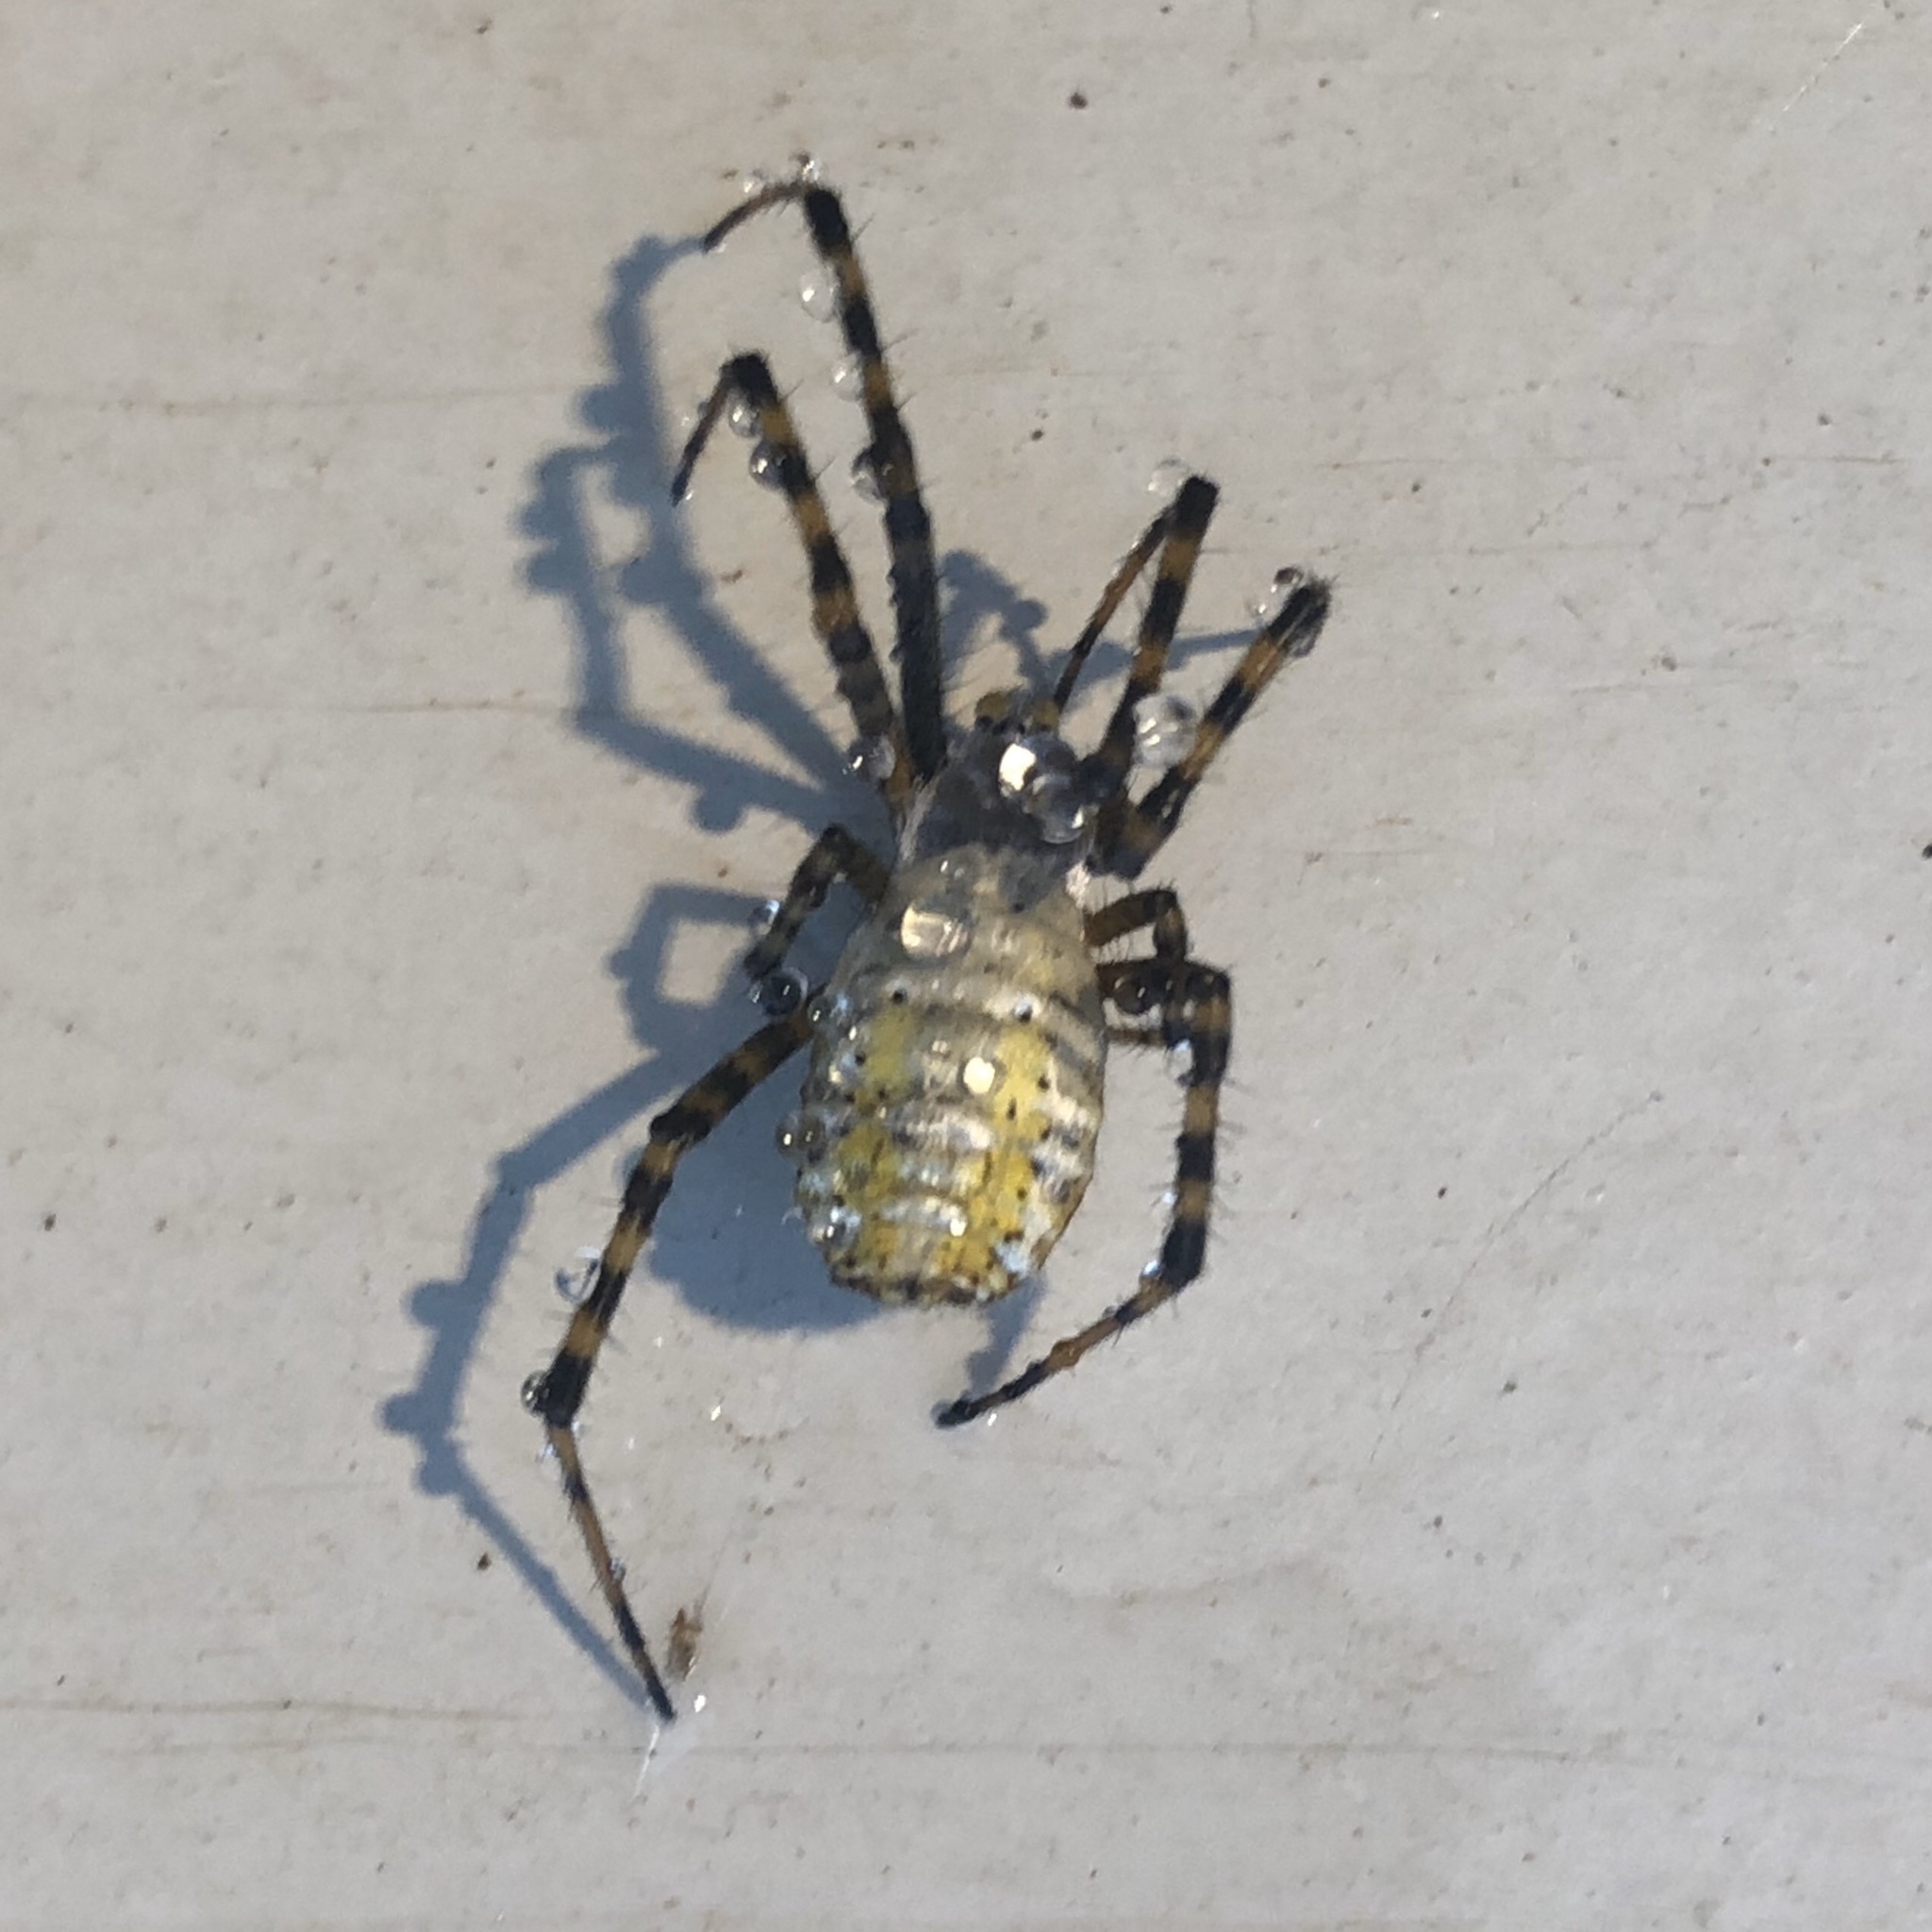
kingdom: Animalia
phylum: Arthropoda
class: Arachnida
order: Araneae
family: Araneidae
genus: Argiope
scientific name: Argiope trifasciata
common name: Banded garden spider
